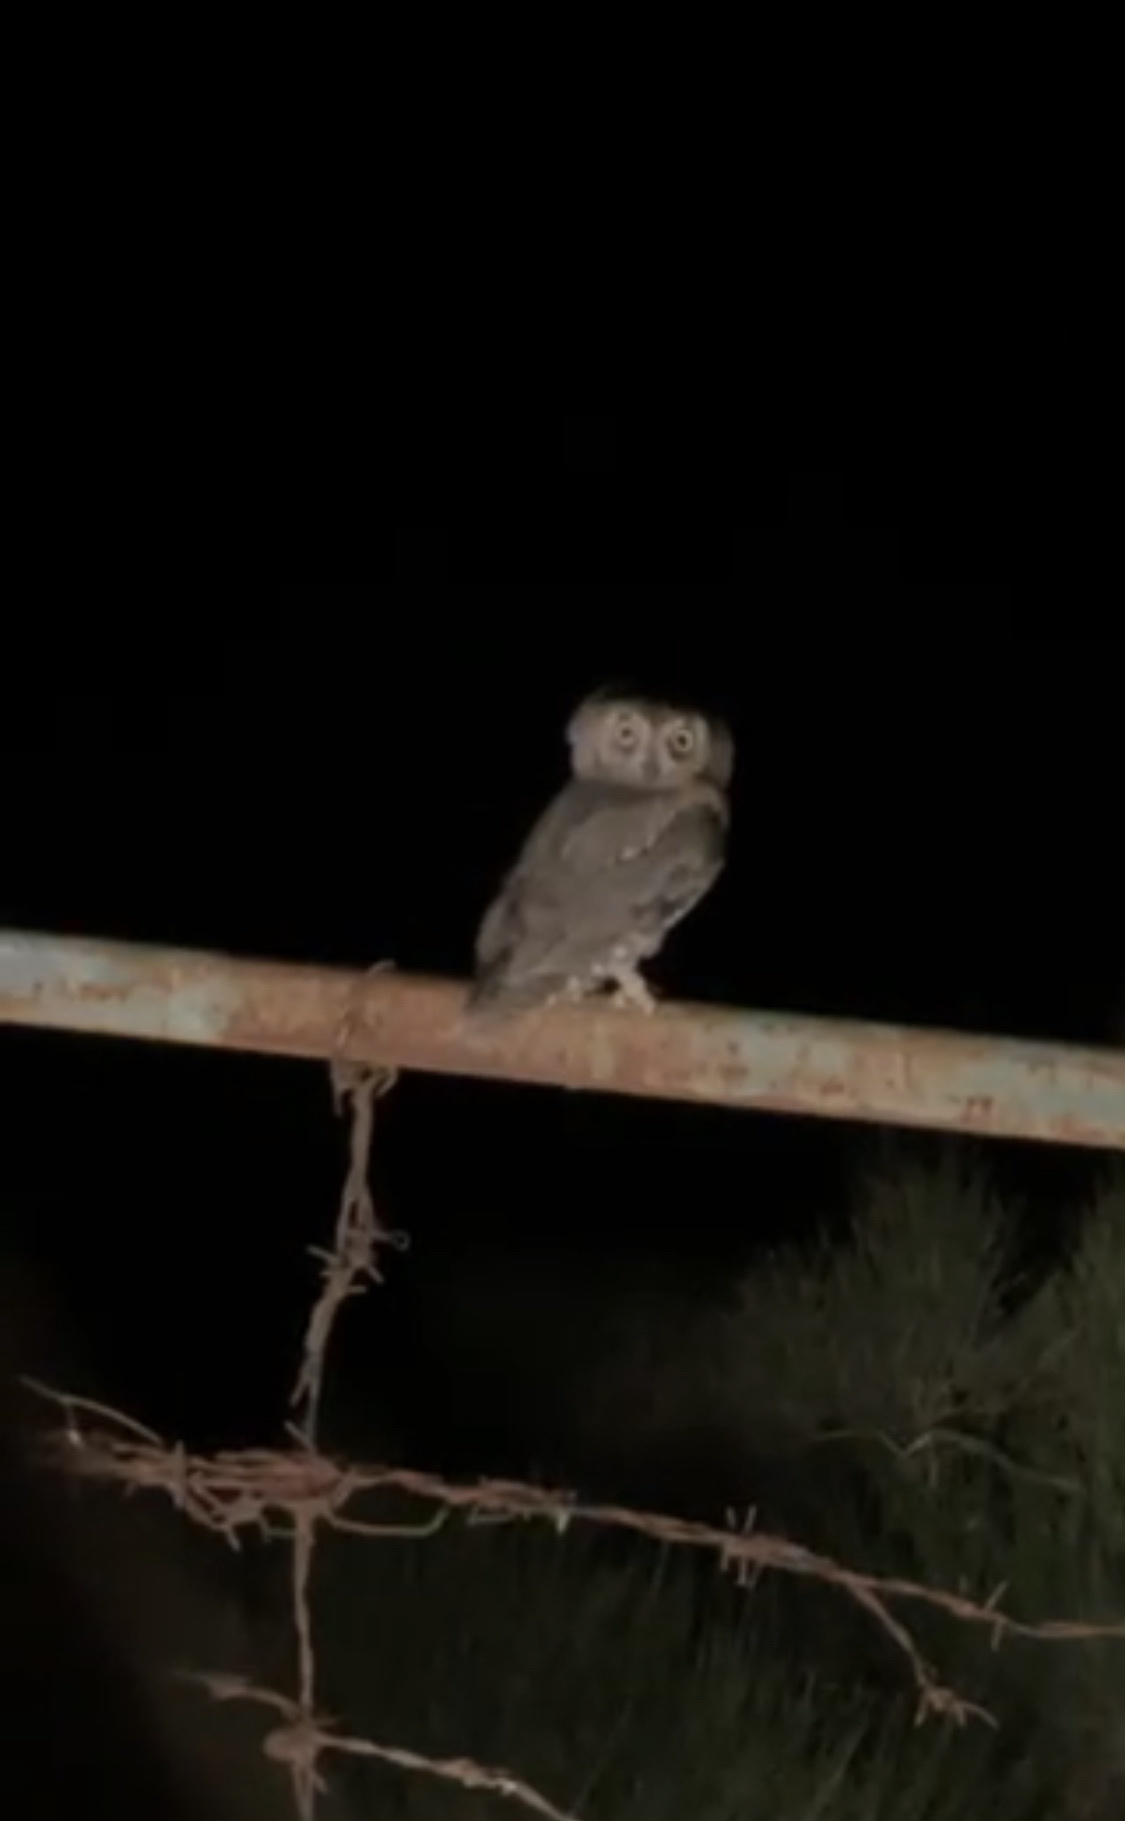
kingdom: Animalia
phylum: Chordata
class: Aves
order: Strigiformes
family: Strigidae
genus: Otus
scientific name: Otus scops
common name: Eurasian scops owl
